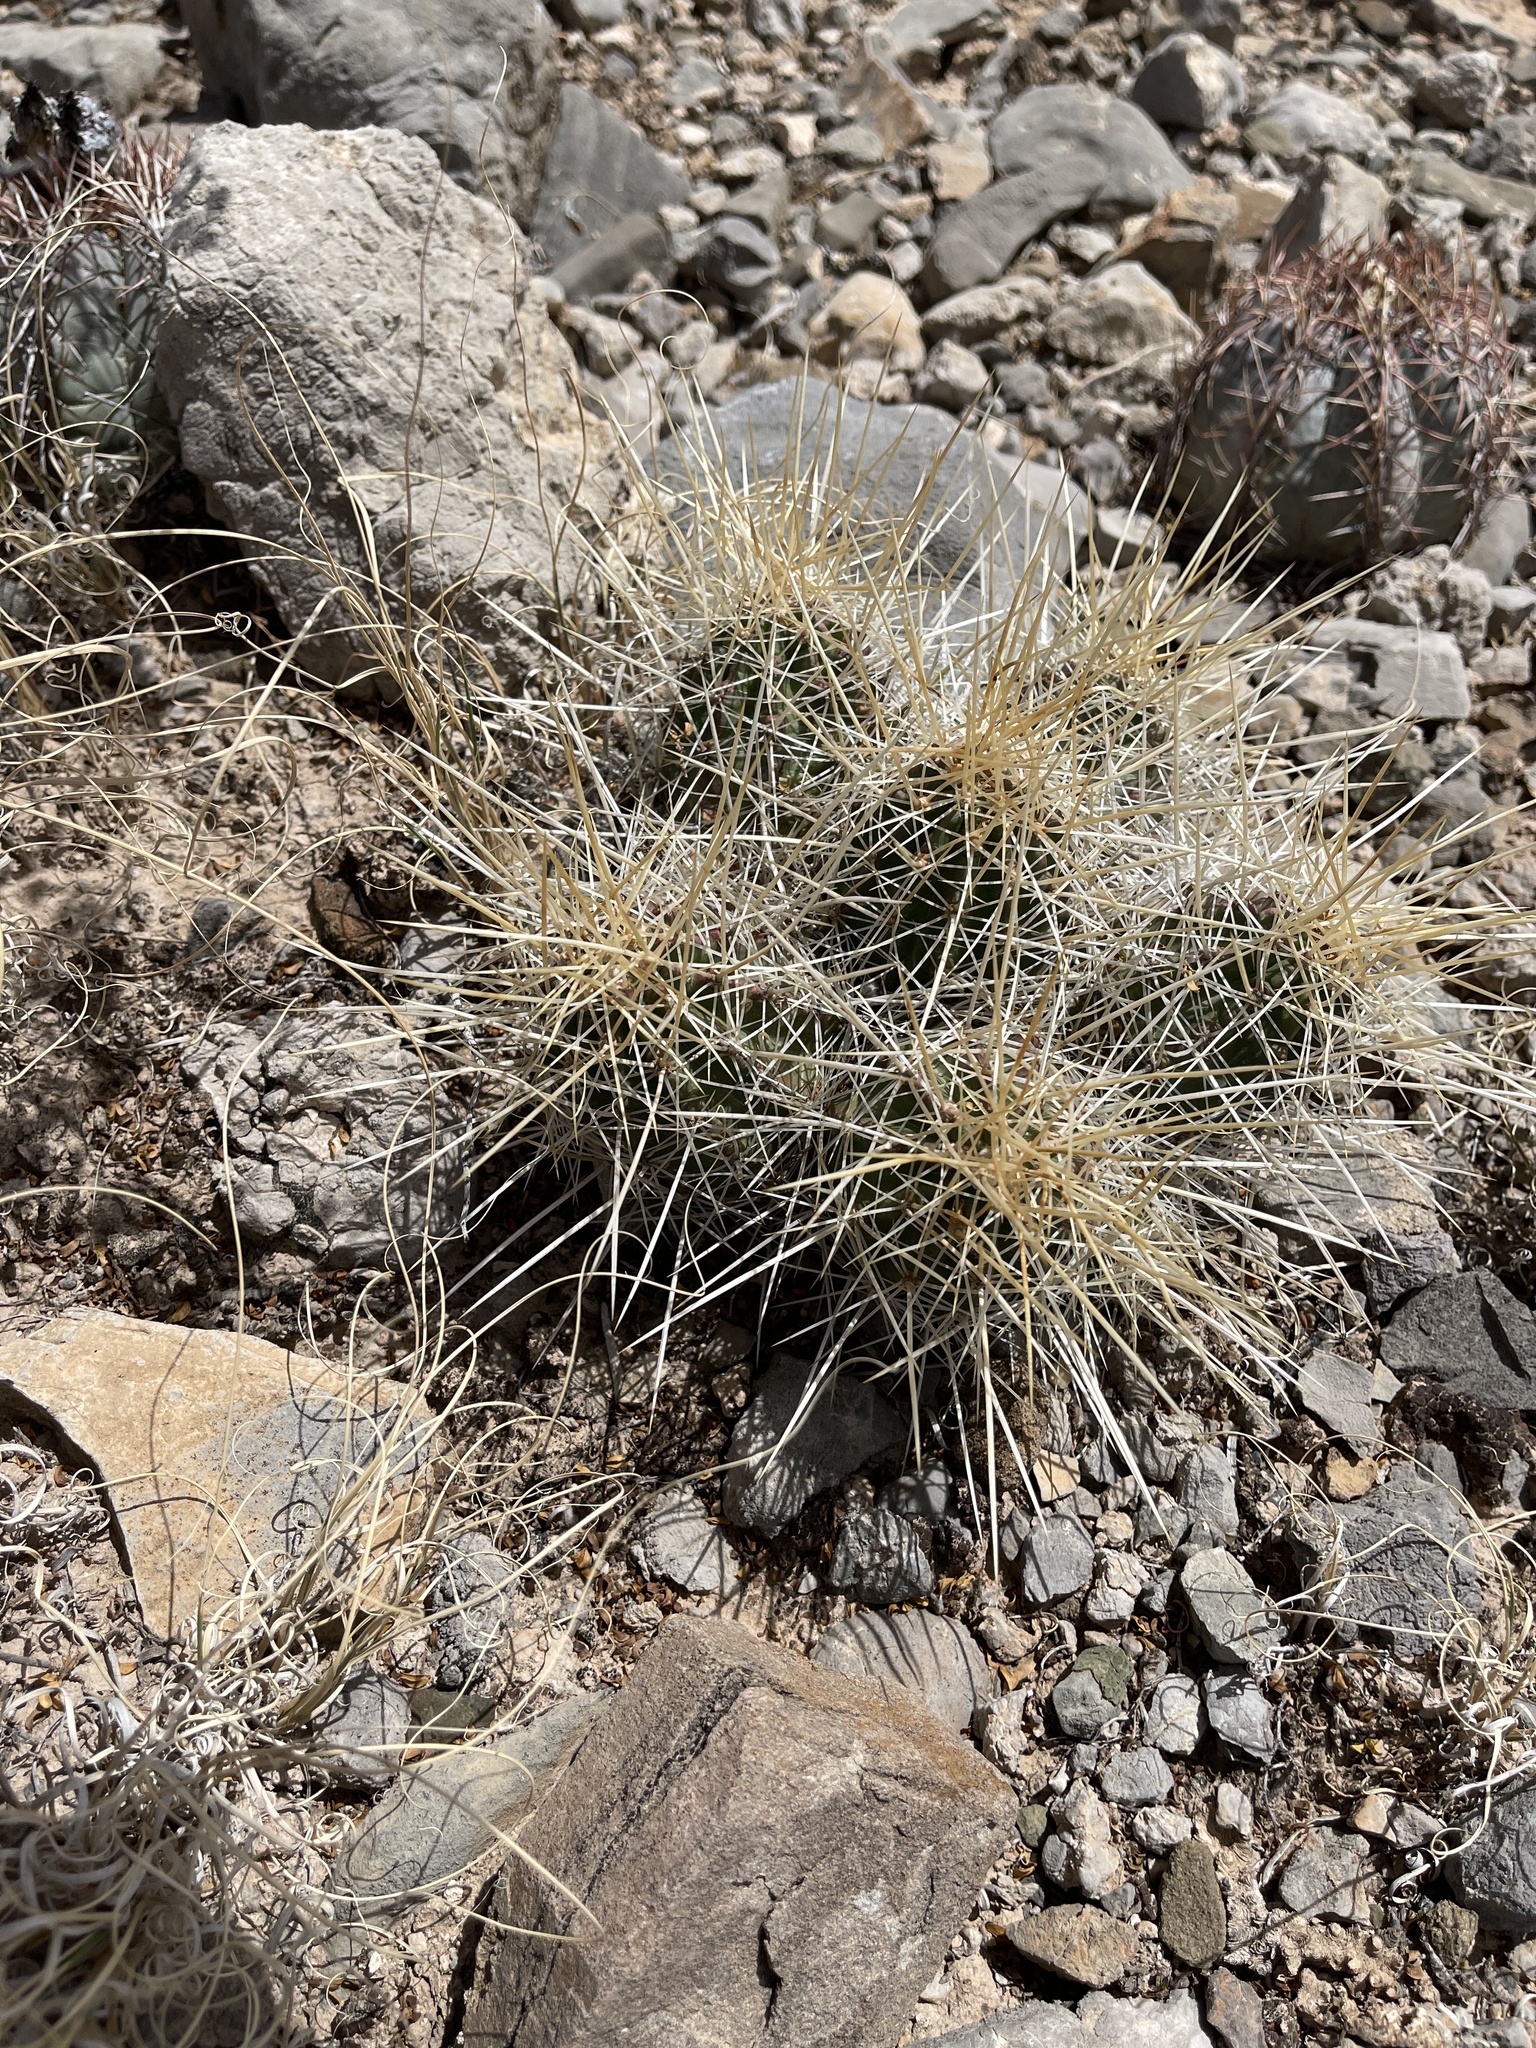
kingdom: Plantae
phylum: Tracheophyta
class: Magnoliopsida
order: Caryophyllales
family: Cactaceae
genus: Echinocereus
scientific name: Echinocereus stramineus
